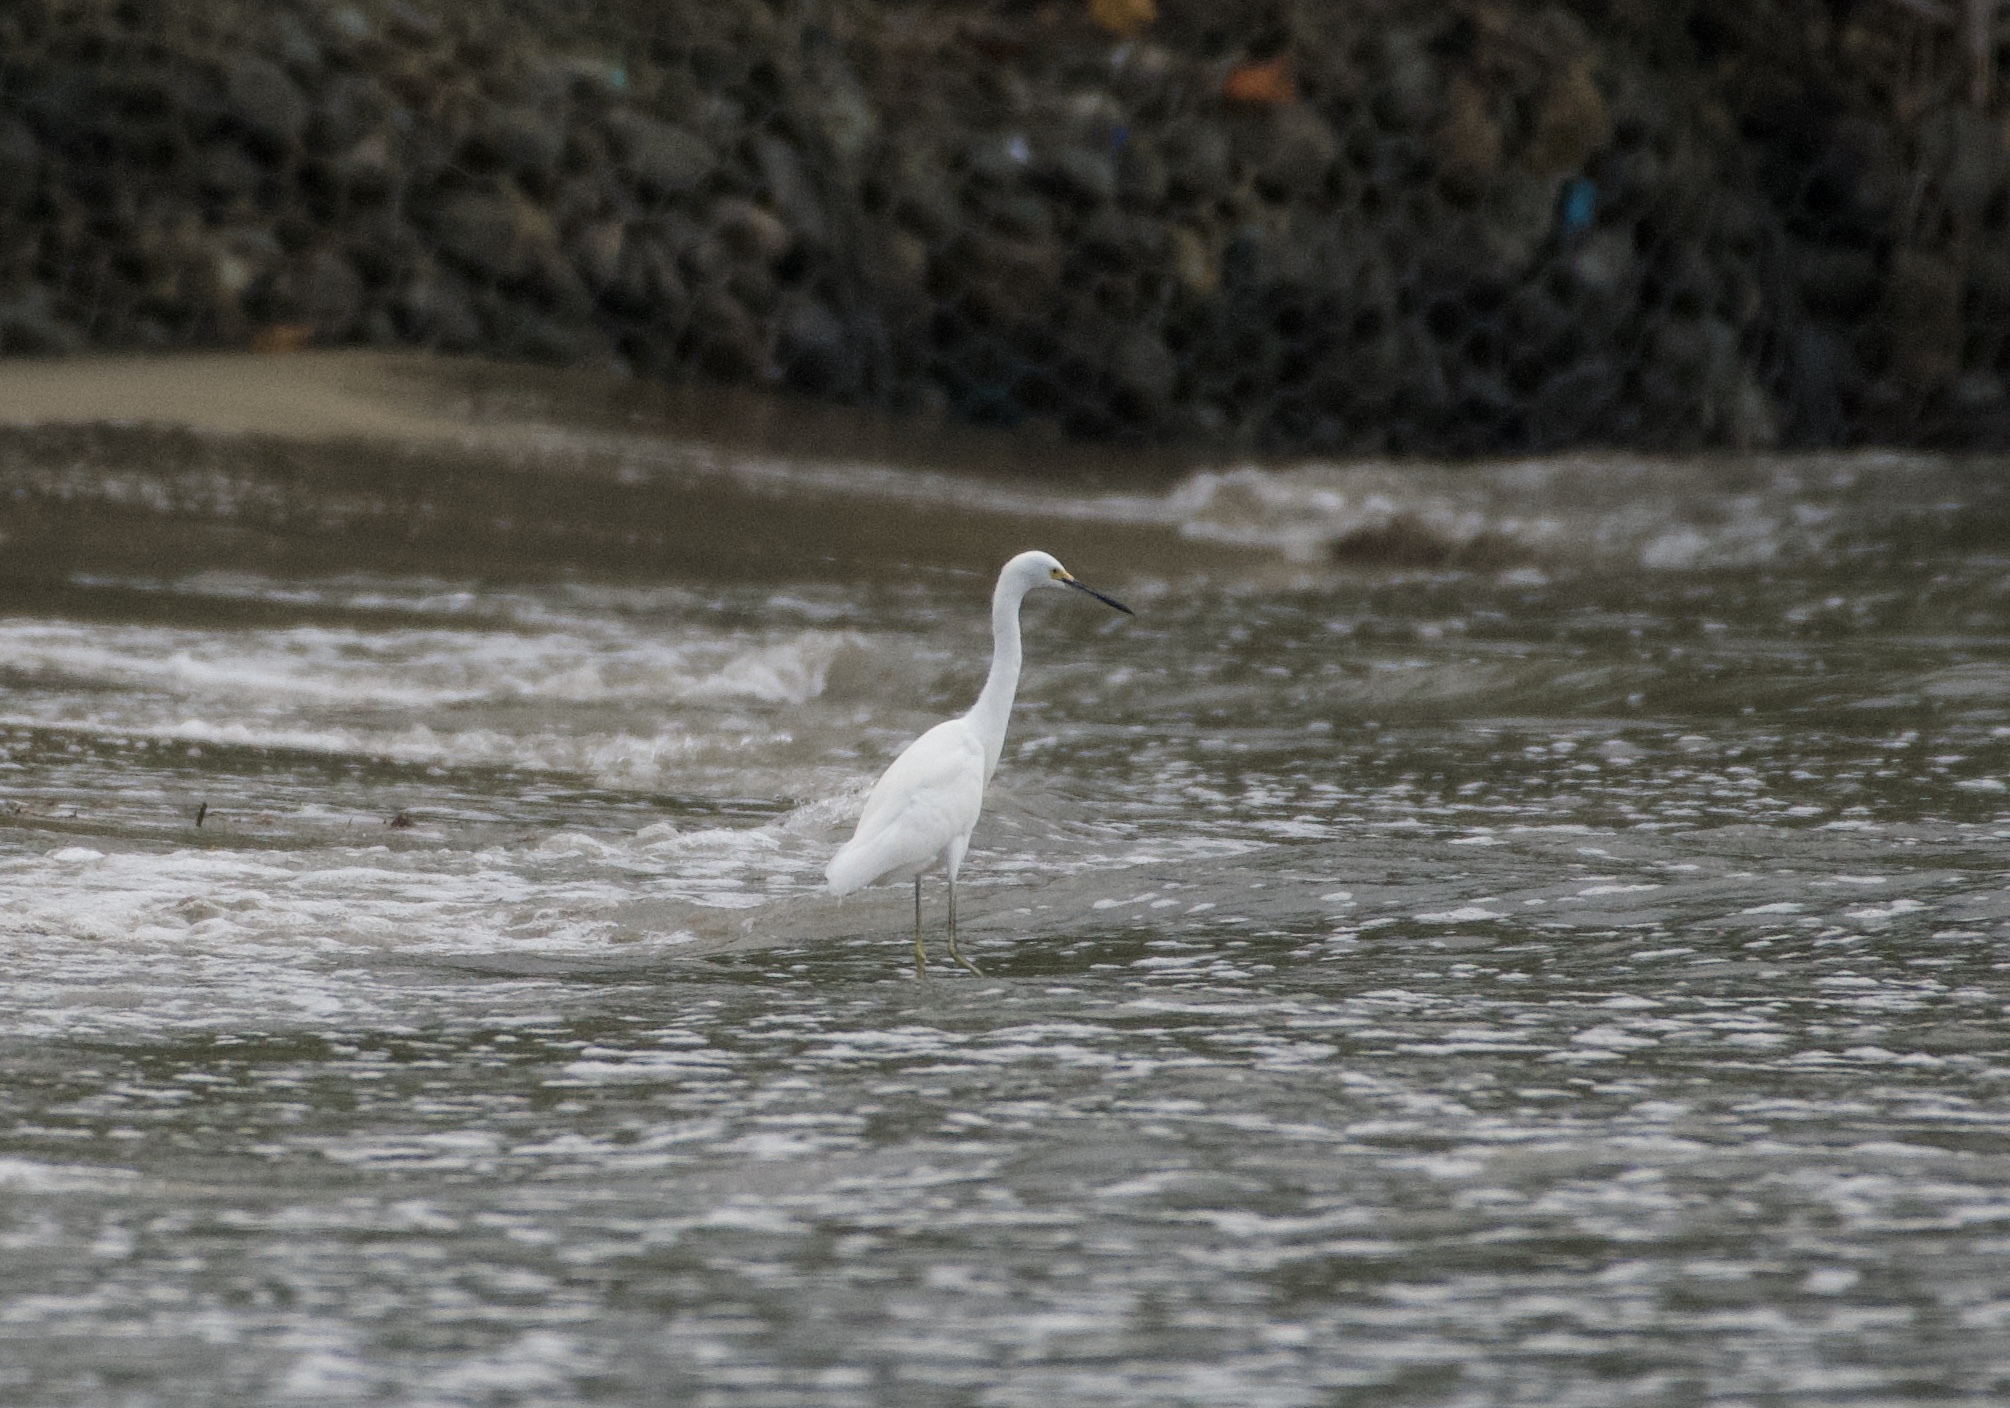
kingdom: Animalia
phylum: Chordata
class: Aves
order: Pelecaniformes
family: Ardeidae
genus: Egretta
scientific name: Egretta thula
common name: Snowy egret
